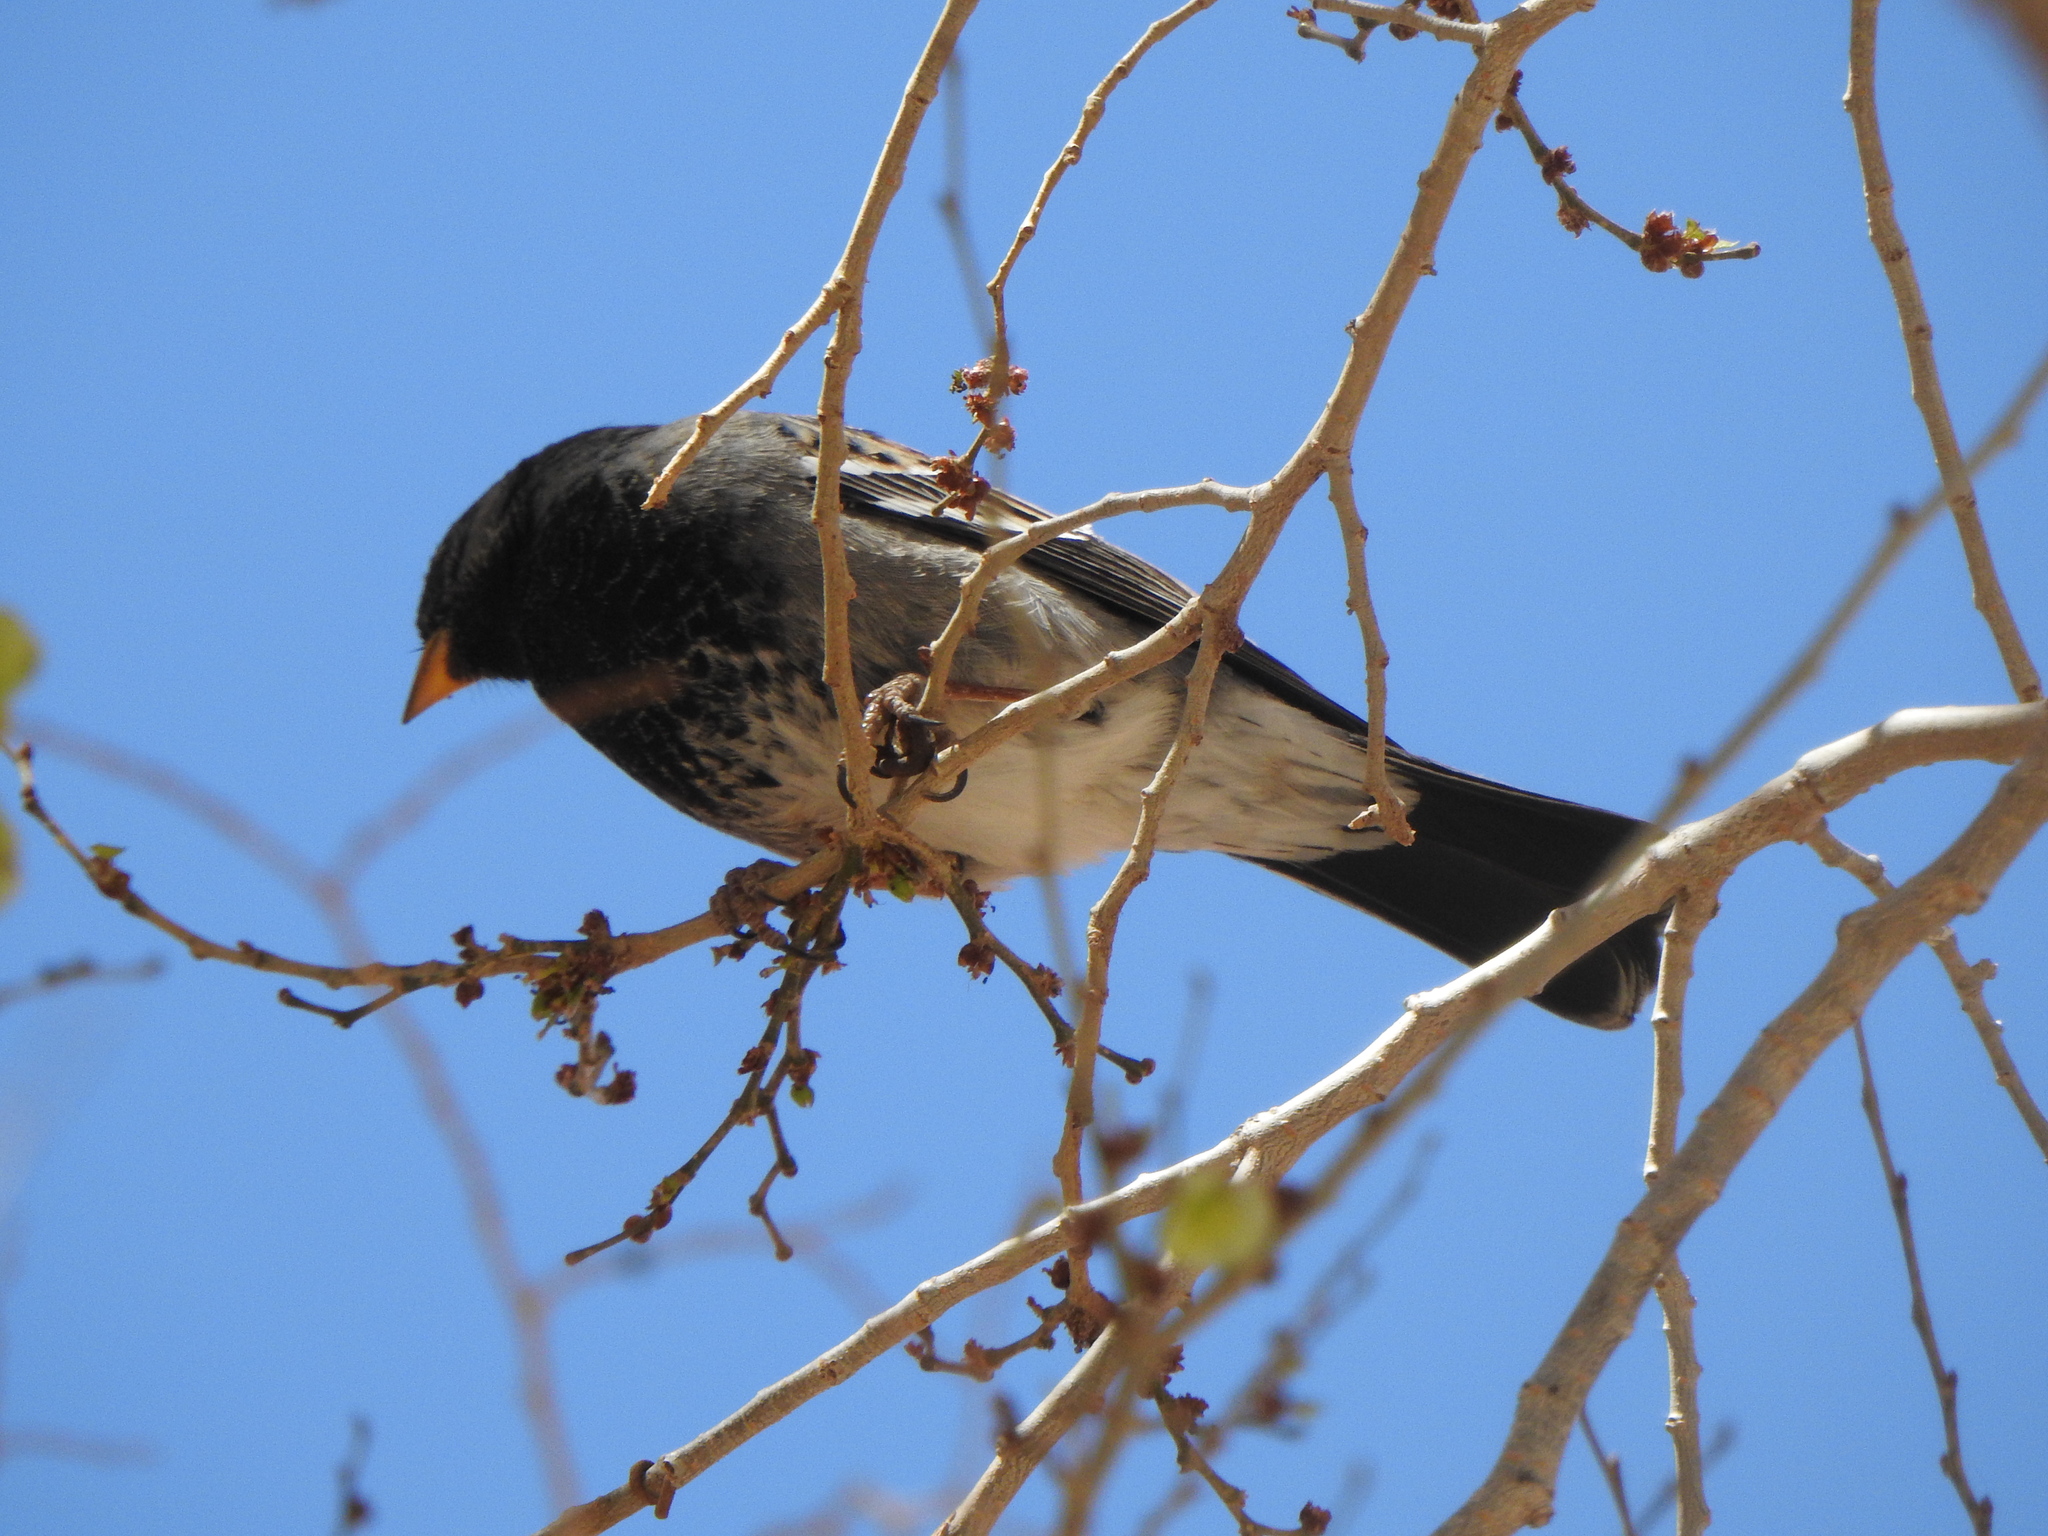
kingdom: Animalia
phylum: Chordata
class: Aves
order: Passeriformes
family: Thraupidae
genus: Rhopospina
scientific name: Rhopospina fruticeti
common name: Mourning sierra finch
